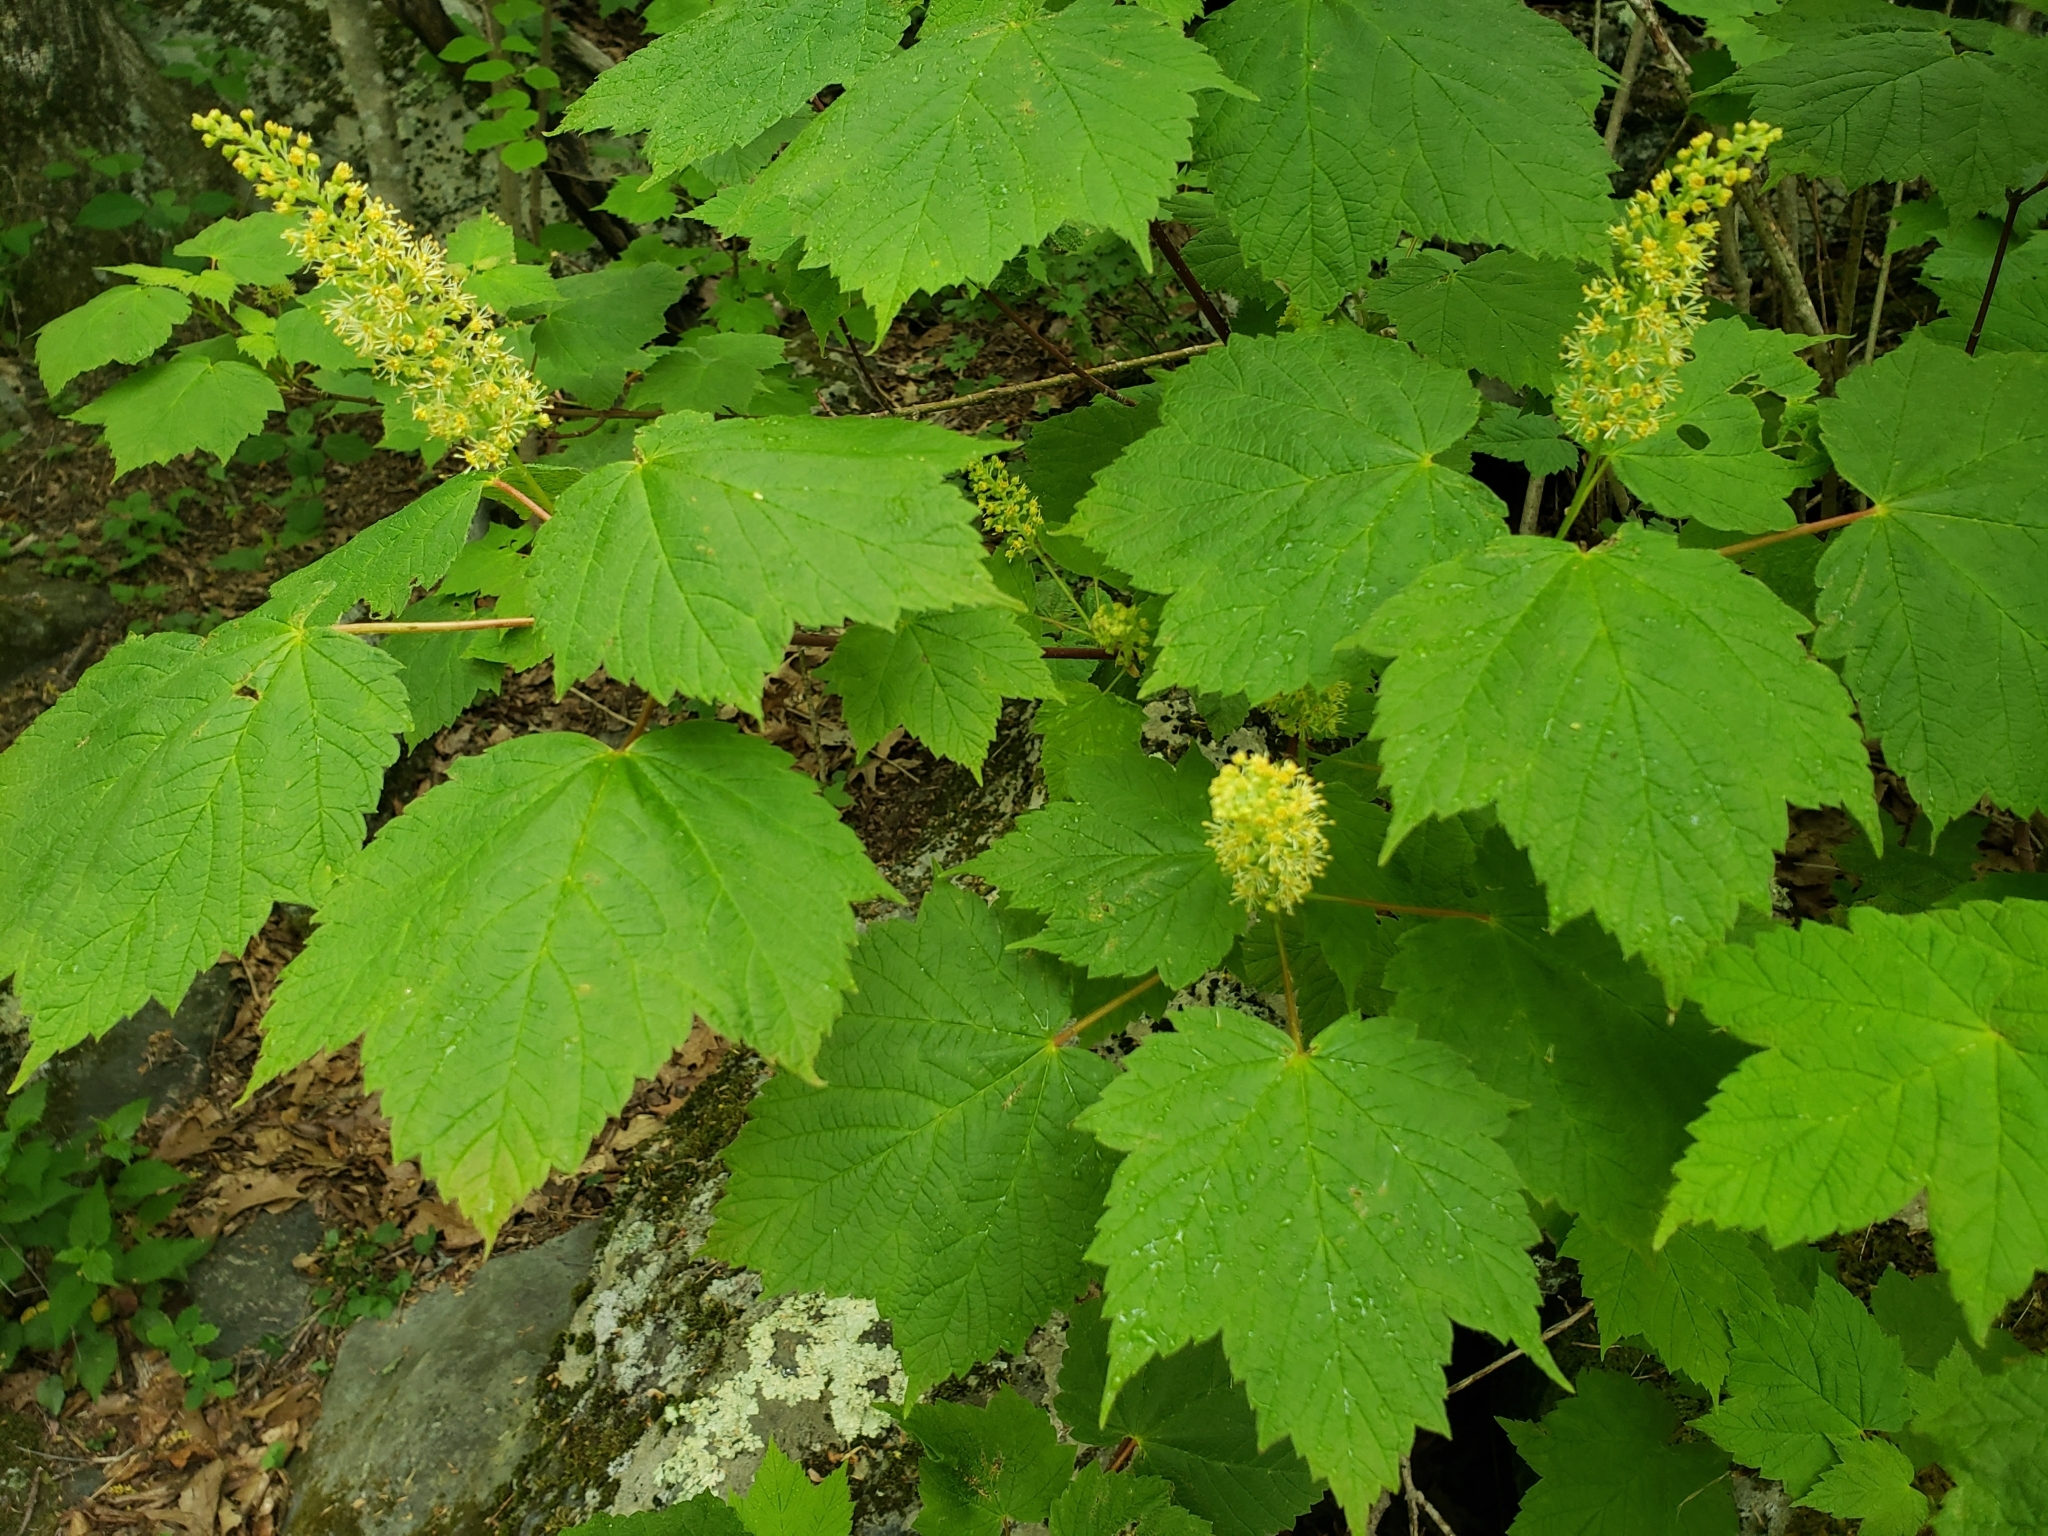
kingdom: Plantae
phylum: Tracheophyta
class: Magnoliopsida
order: Sapindales
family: Sapindaceae
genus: Acer
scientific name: Acer spicatum
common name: Mountain maple
